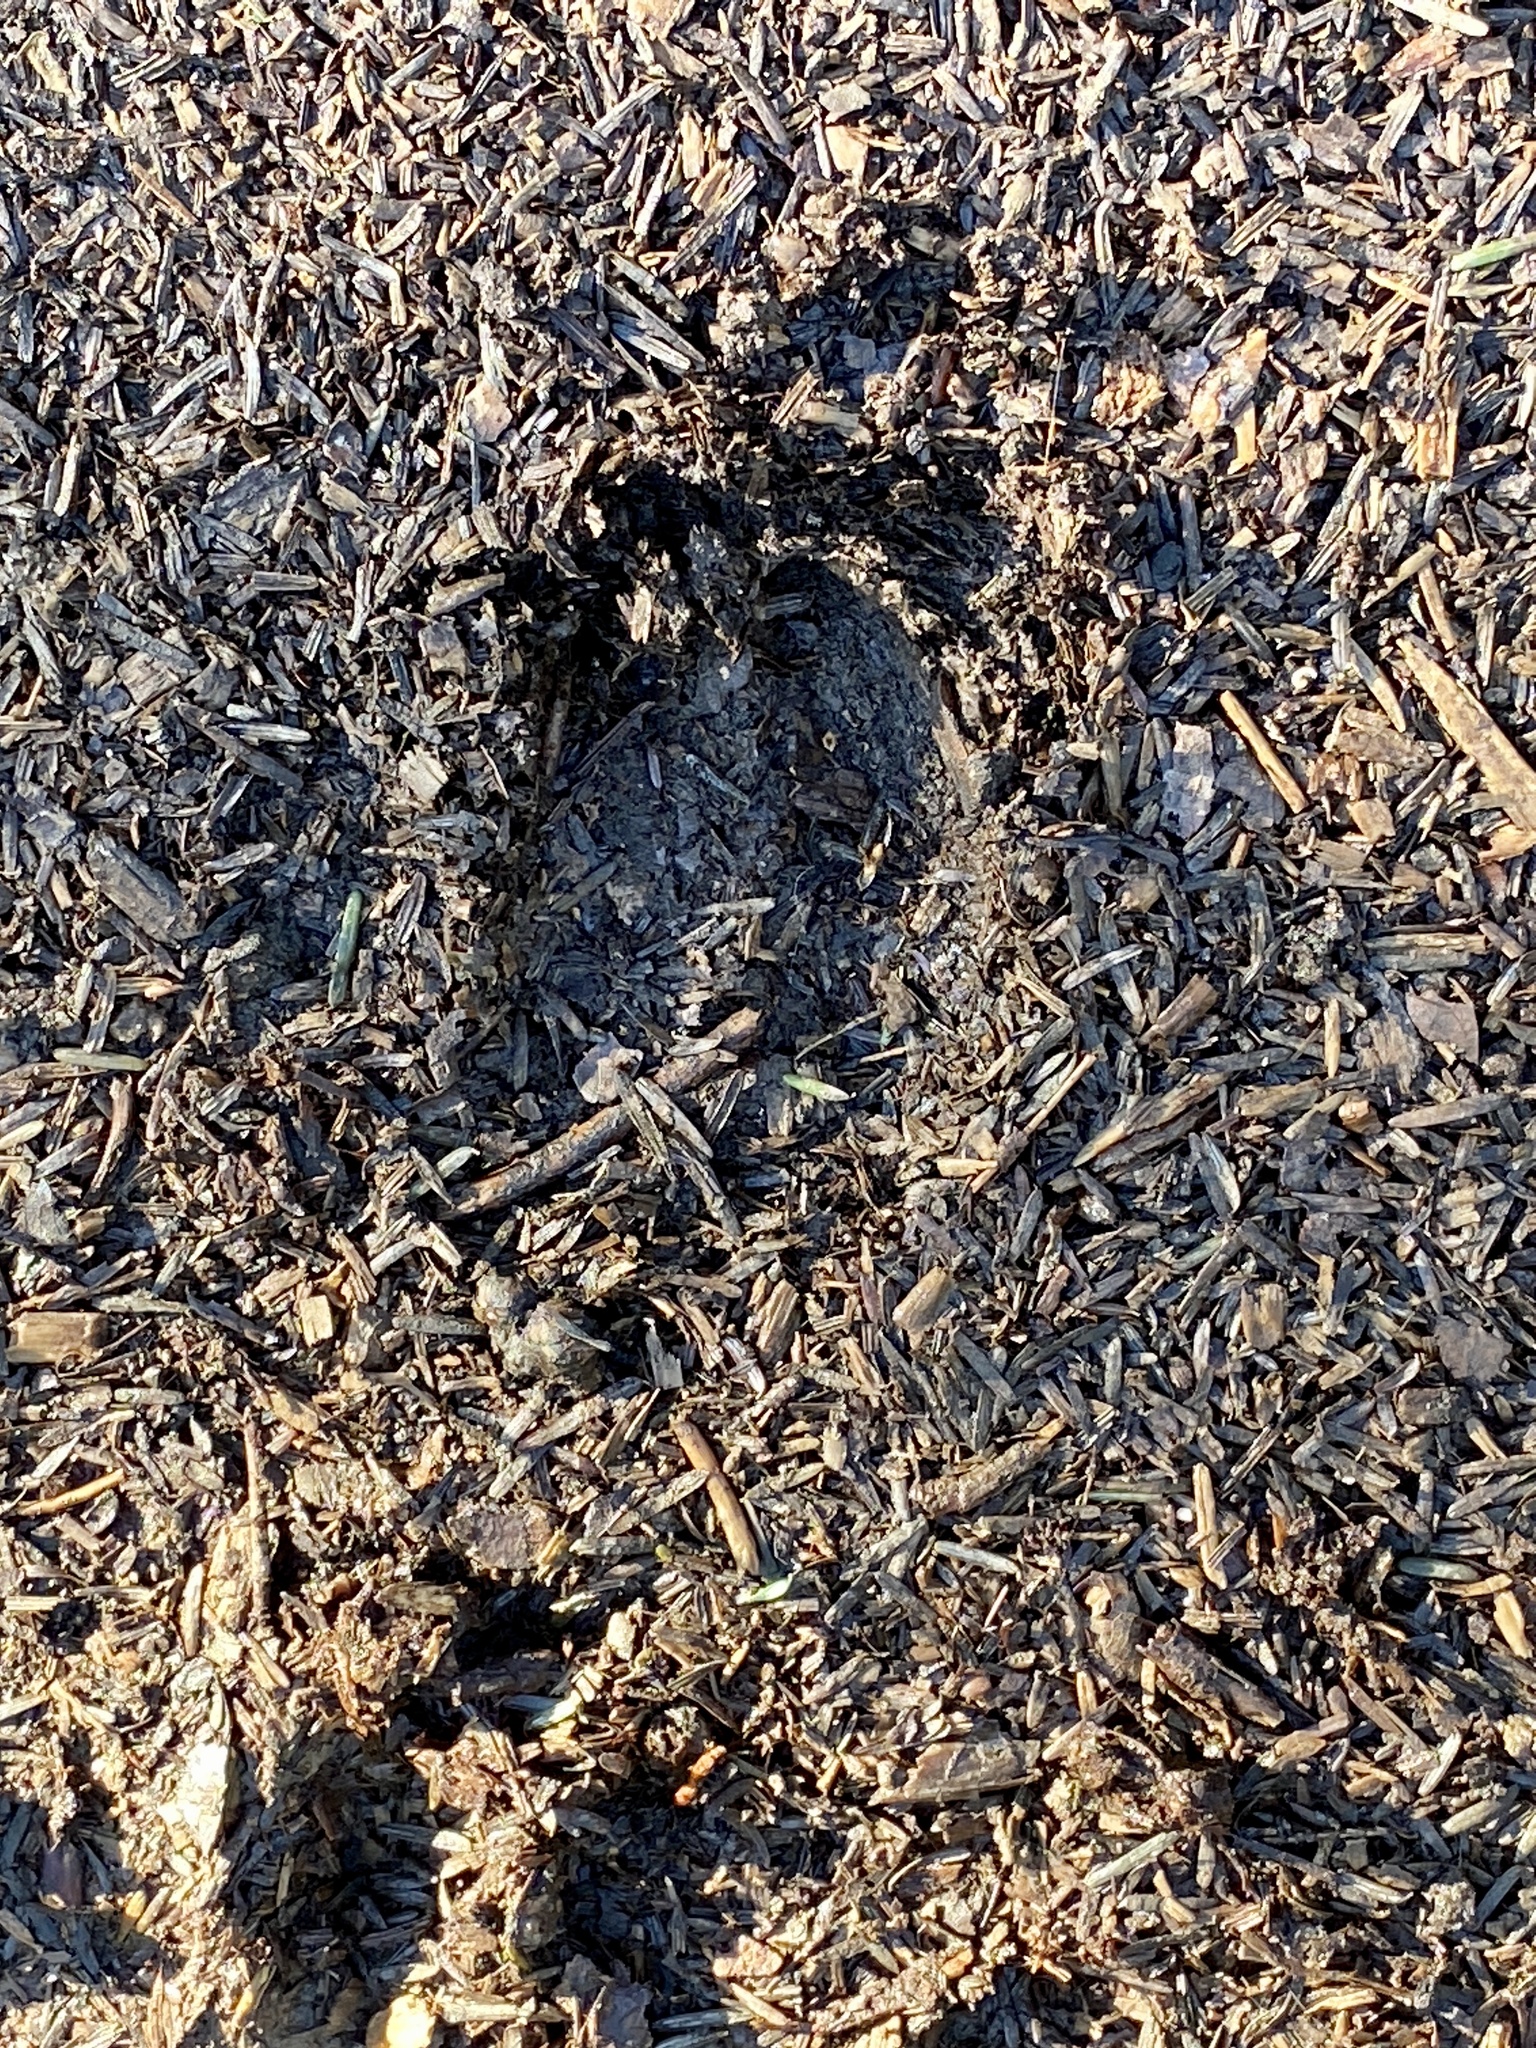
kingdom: Animalia
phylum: Chordata
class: Mammalia
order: Artiodactyla
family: Cervidae
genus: Odocoileus
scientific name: Odocoileus virginianus
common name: White-tailed deer
